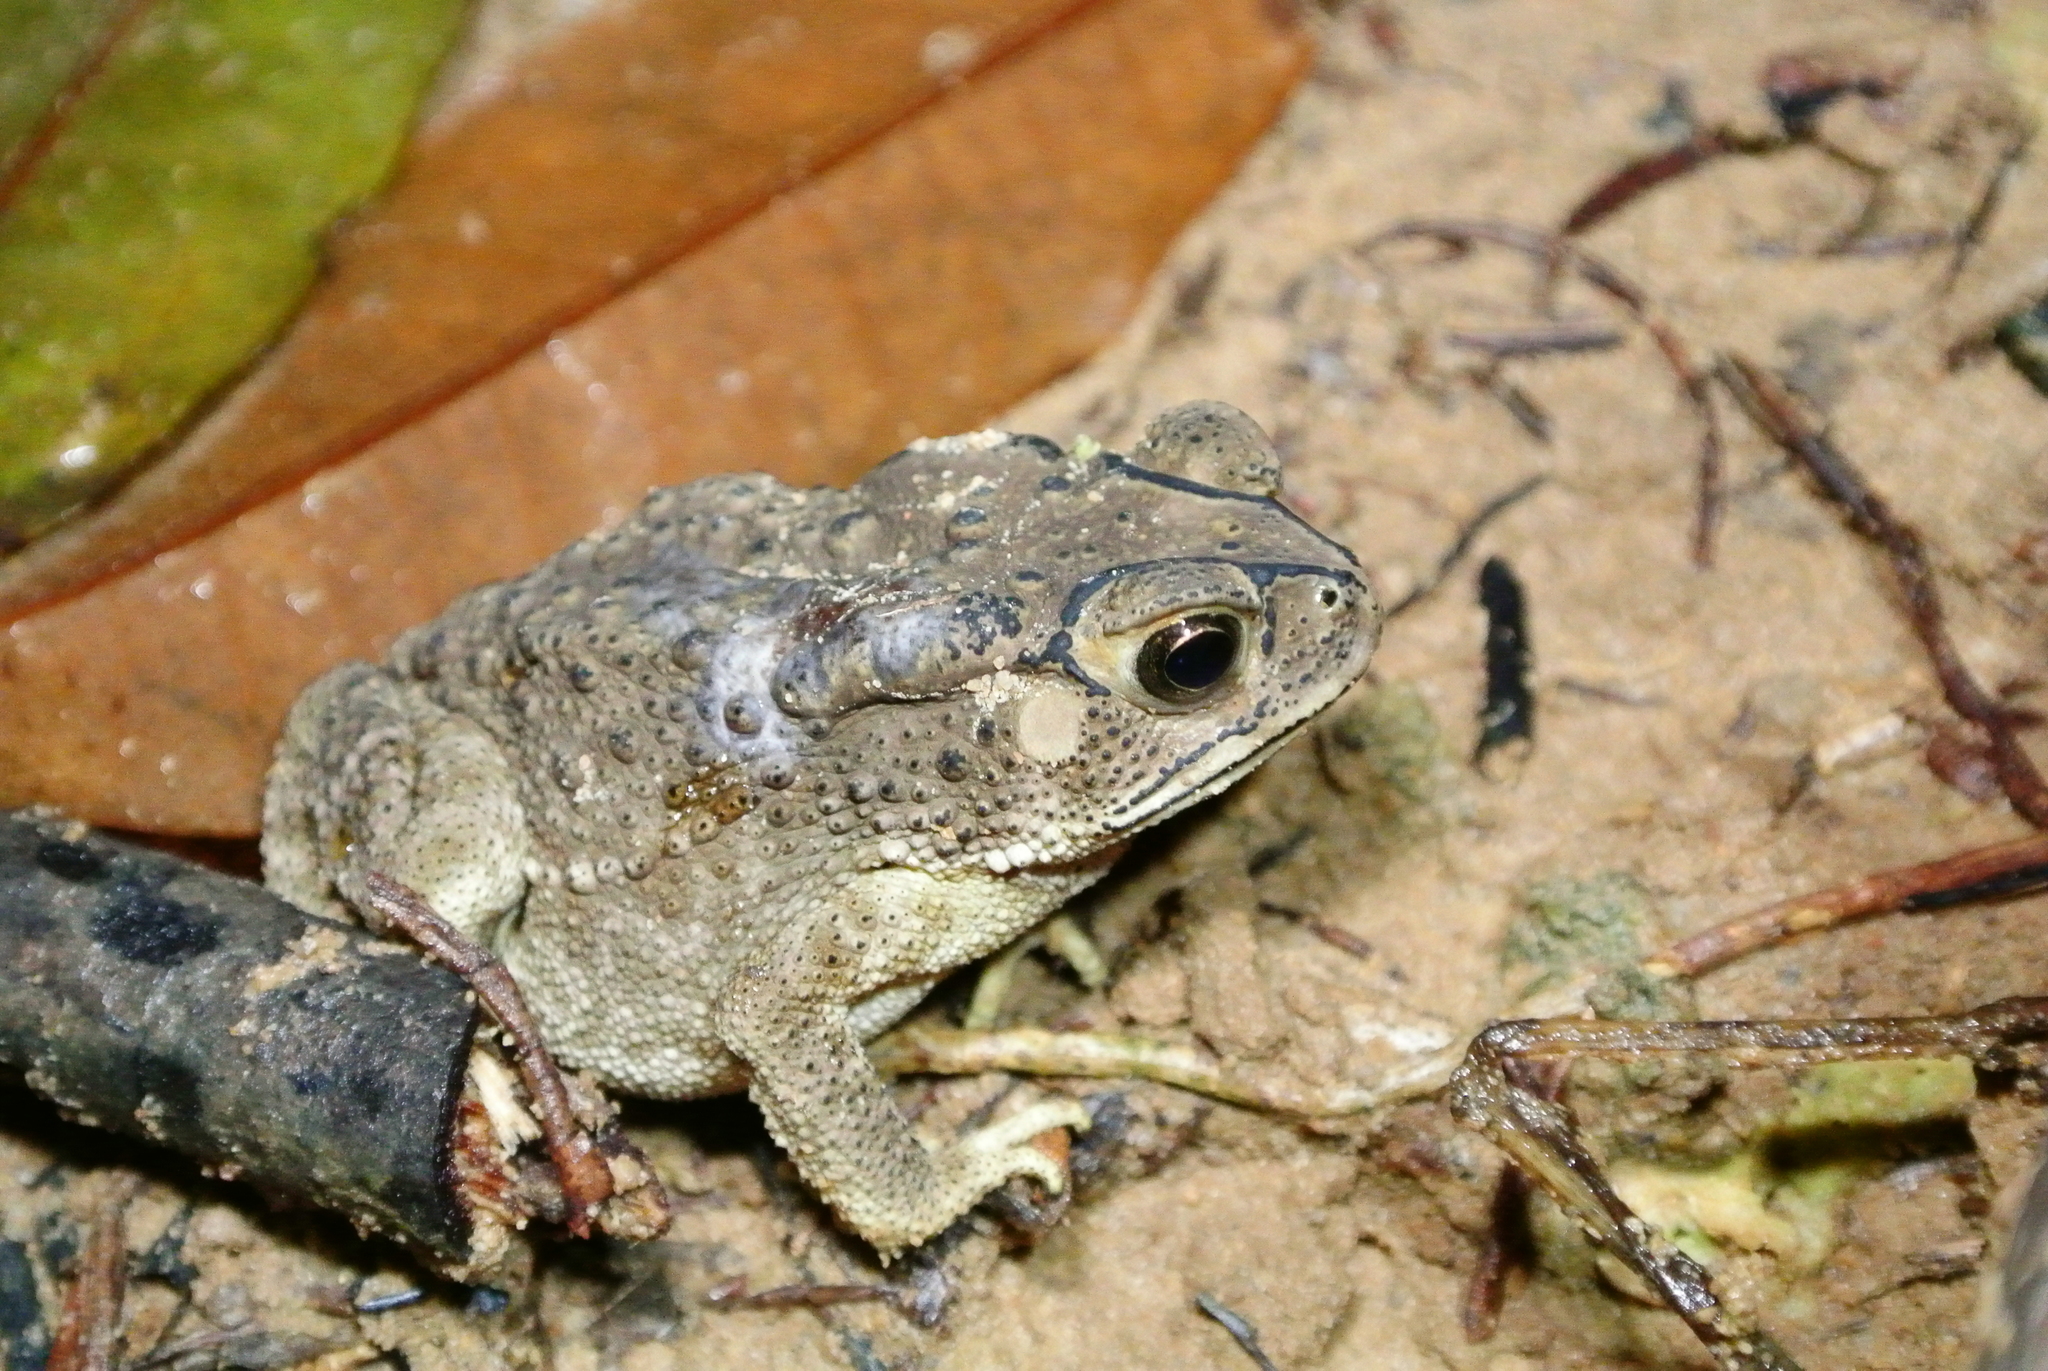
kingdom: Animalia
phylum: Chordata
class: Amphibia
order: Anura
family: Bufonidae
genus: Duttaphrynus
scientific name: Duttaphrynus melanostictus
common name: Common sunda toad
